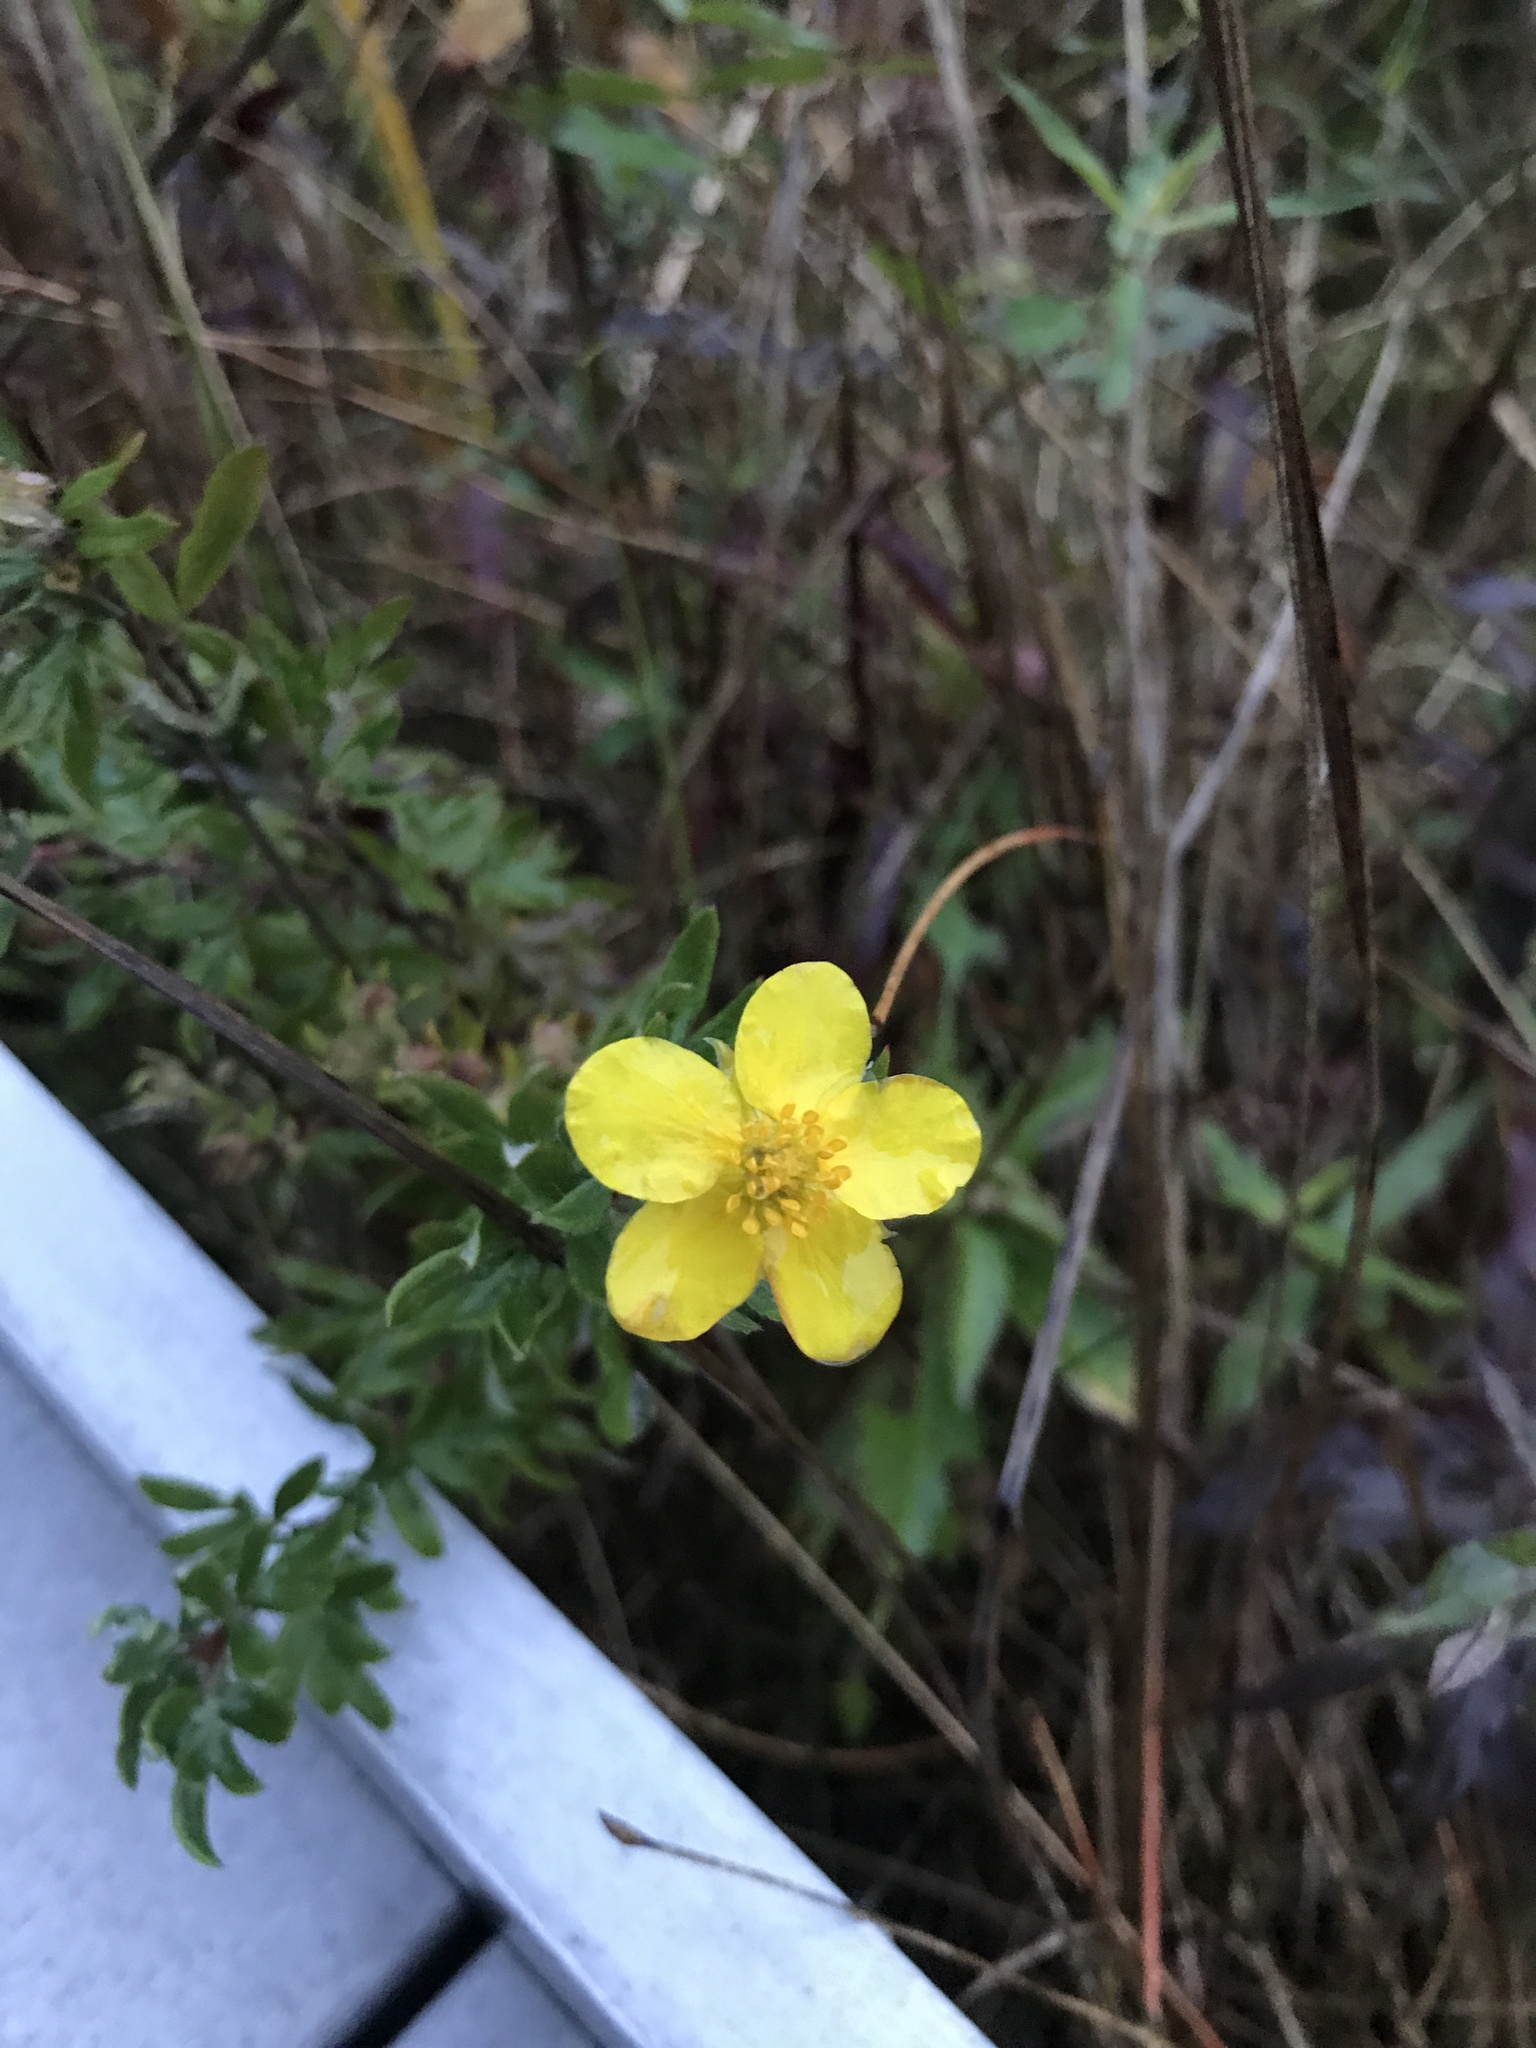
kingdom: Plantae
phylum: Tracheophyta
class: Magnoliopsida
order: Rosales
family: Rosaceae
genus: Dasiphora
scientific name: Dasiphora fruticosa
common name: Shrubby cinquefoil
